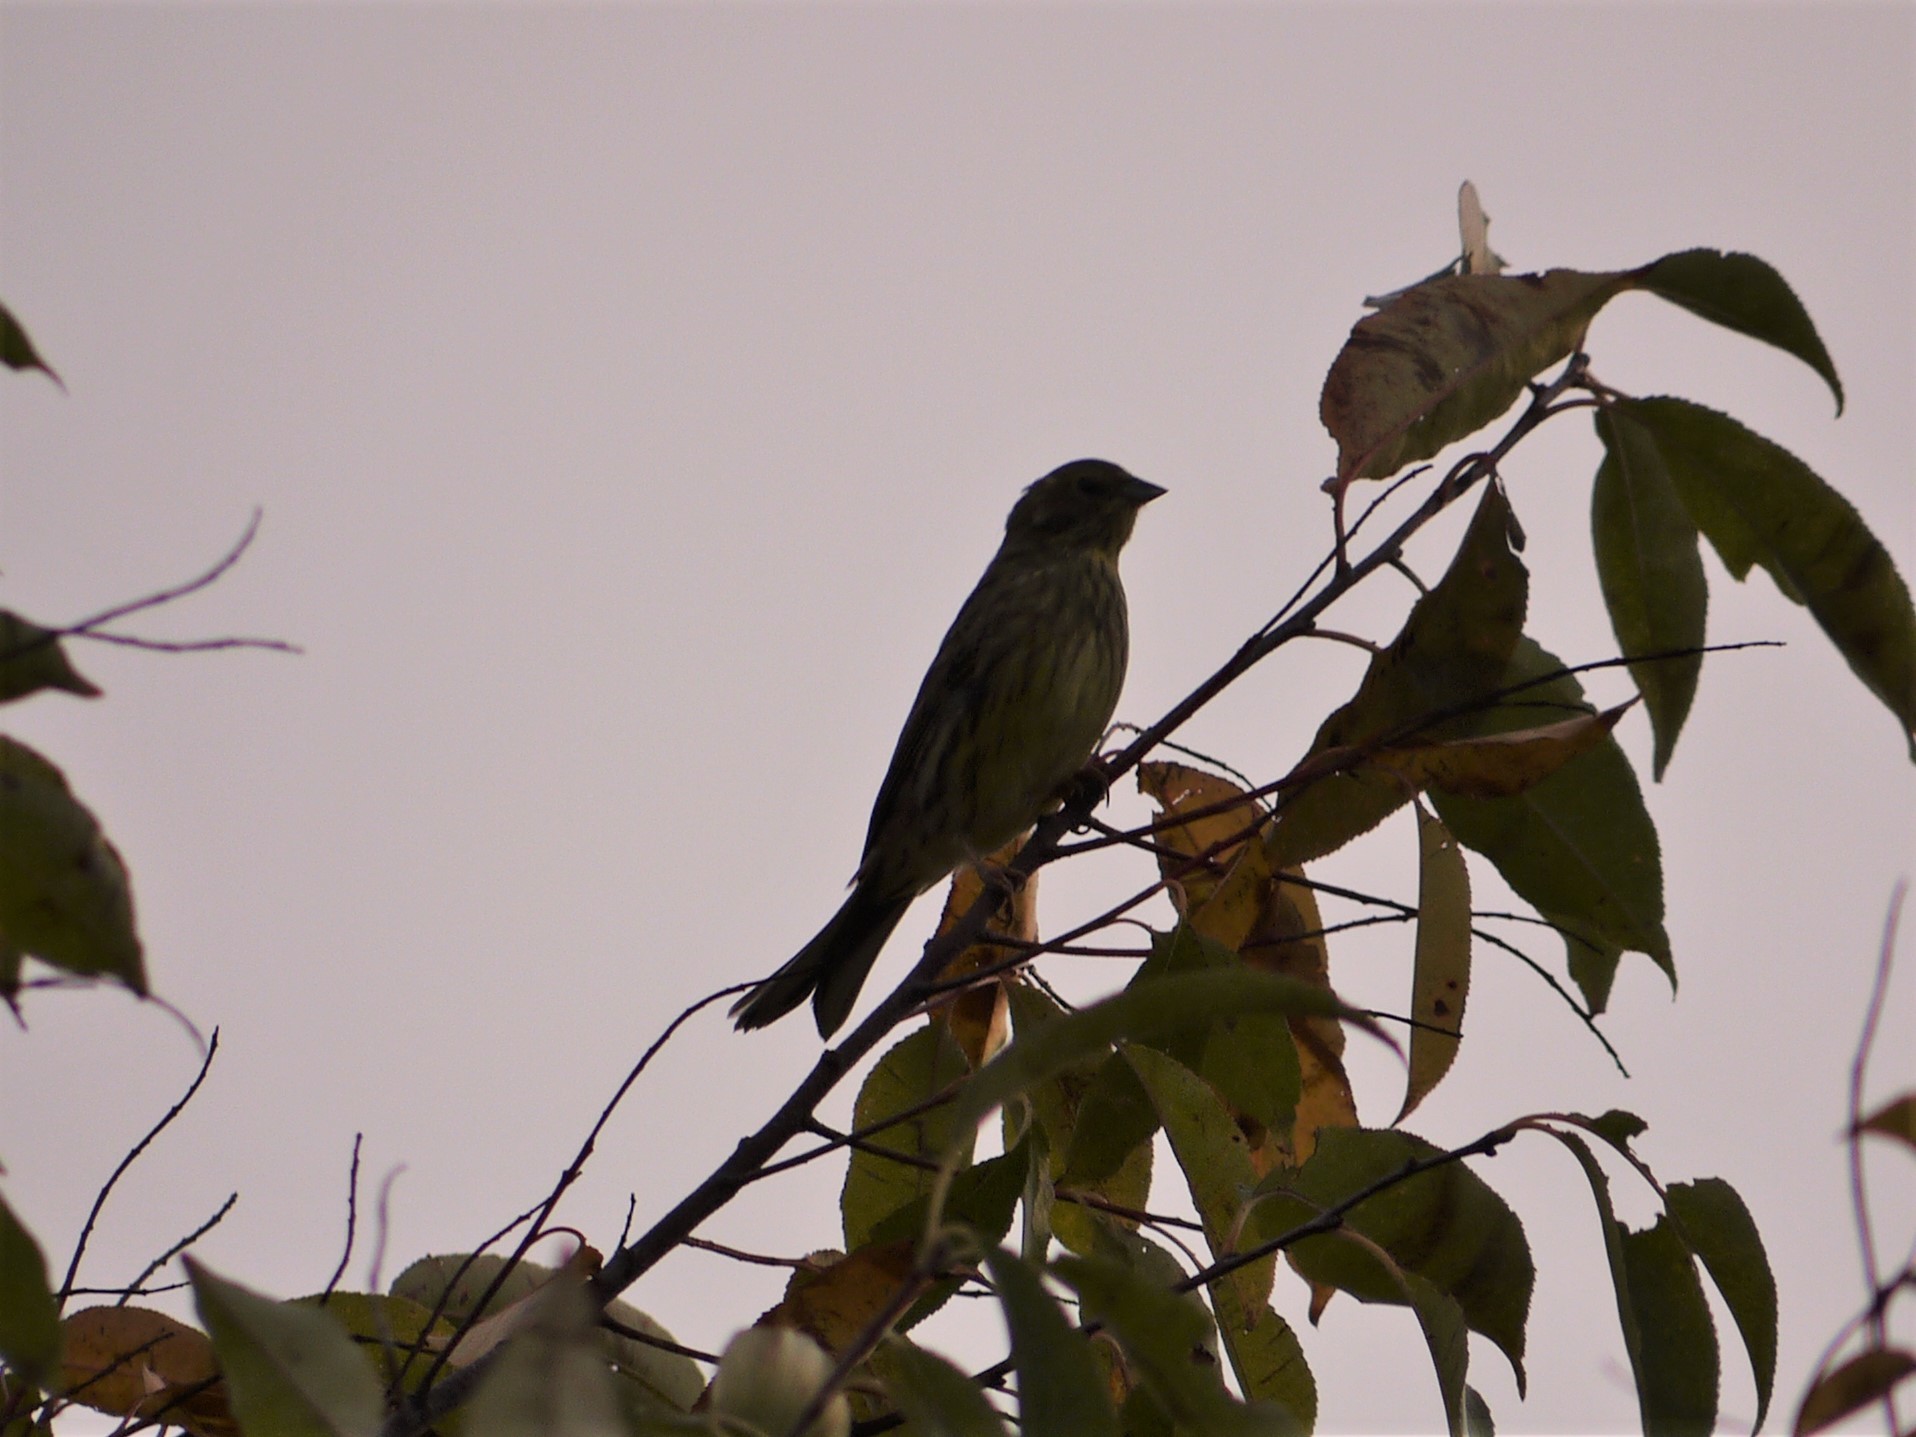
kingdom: Animalia
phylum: Chordata
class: Aves
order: Passeriformes
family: Emberizidae
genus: Emberiza
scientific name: Emberiza calandra
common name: Corn bunting
